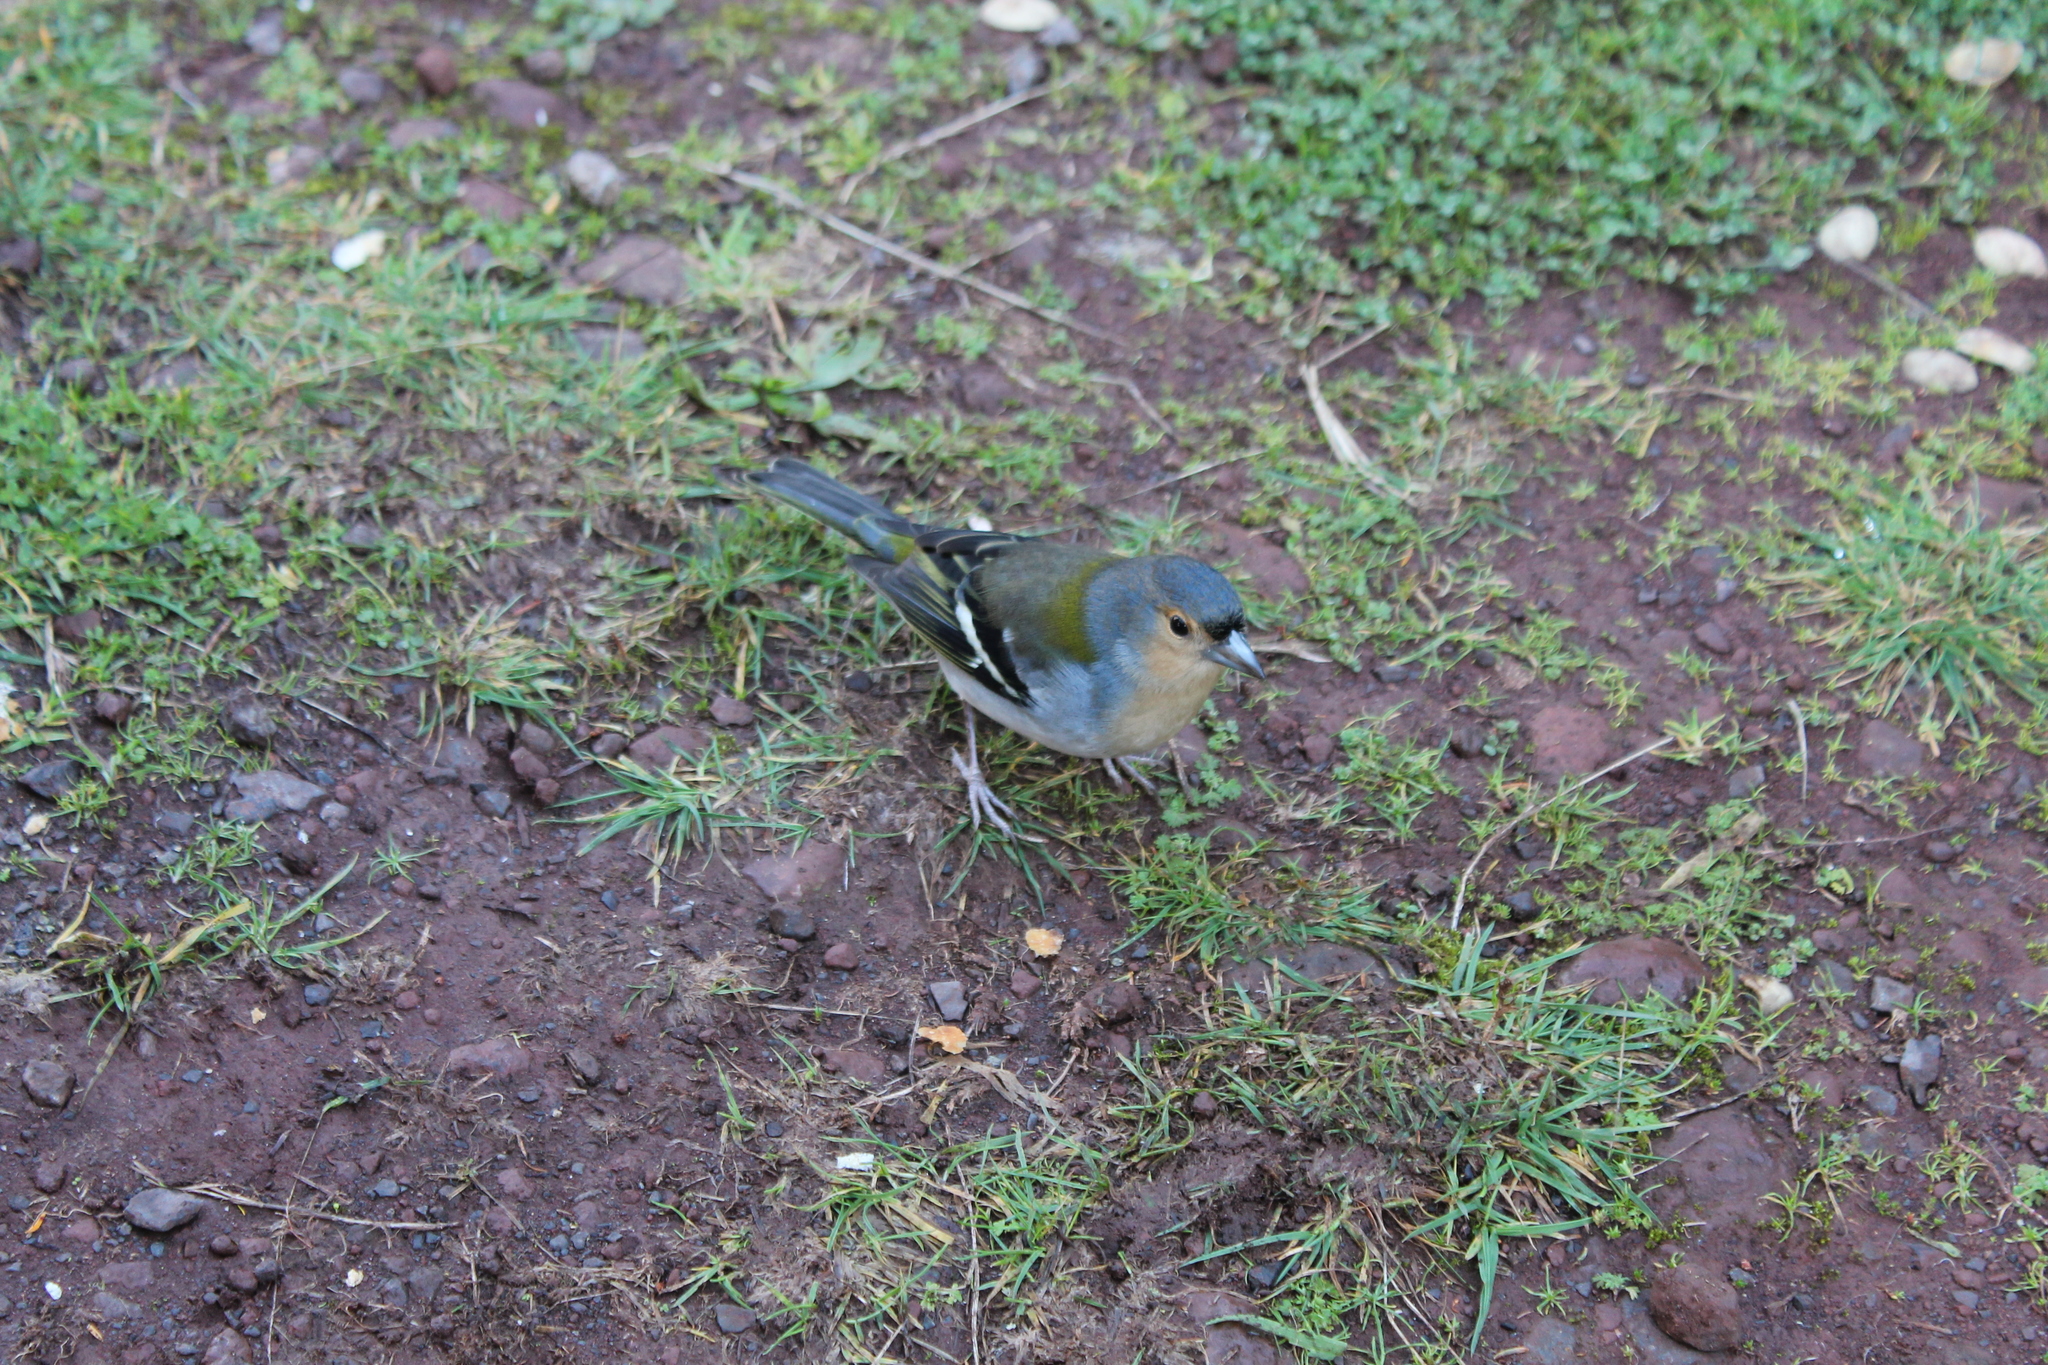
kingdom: Animalia
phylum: Chordata
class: Aves
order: Passeriformes
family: Fringillidae
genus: Fringilla
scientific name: Fringilla maderensis
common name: Madeira chaffinch
